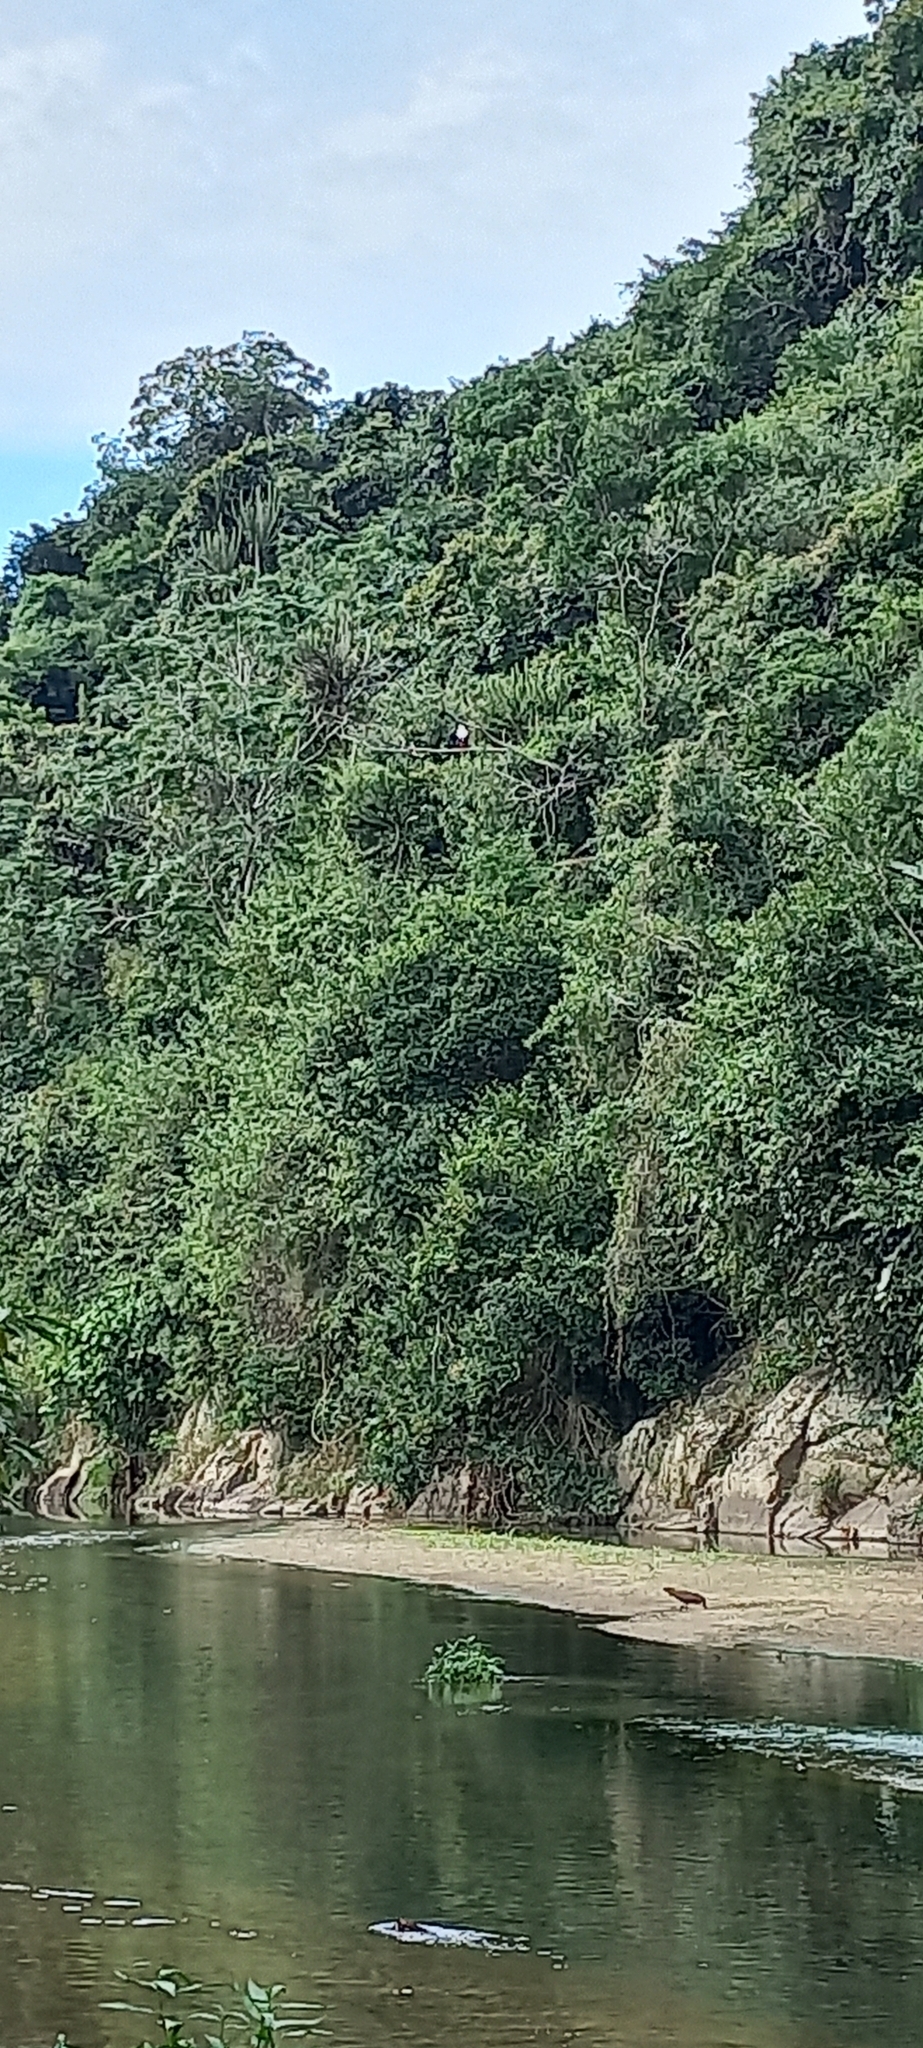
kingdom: Animalia
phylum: Chordata
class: Aves
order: Pelecaniformes
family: Scopidae
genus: Scopus
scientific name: Scopus umbretta
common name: Hamerkop
